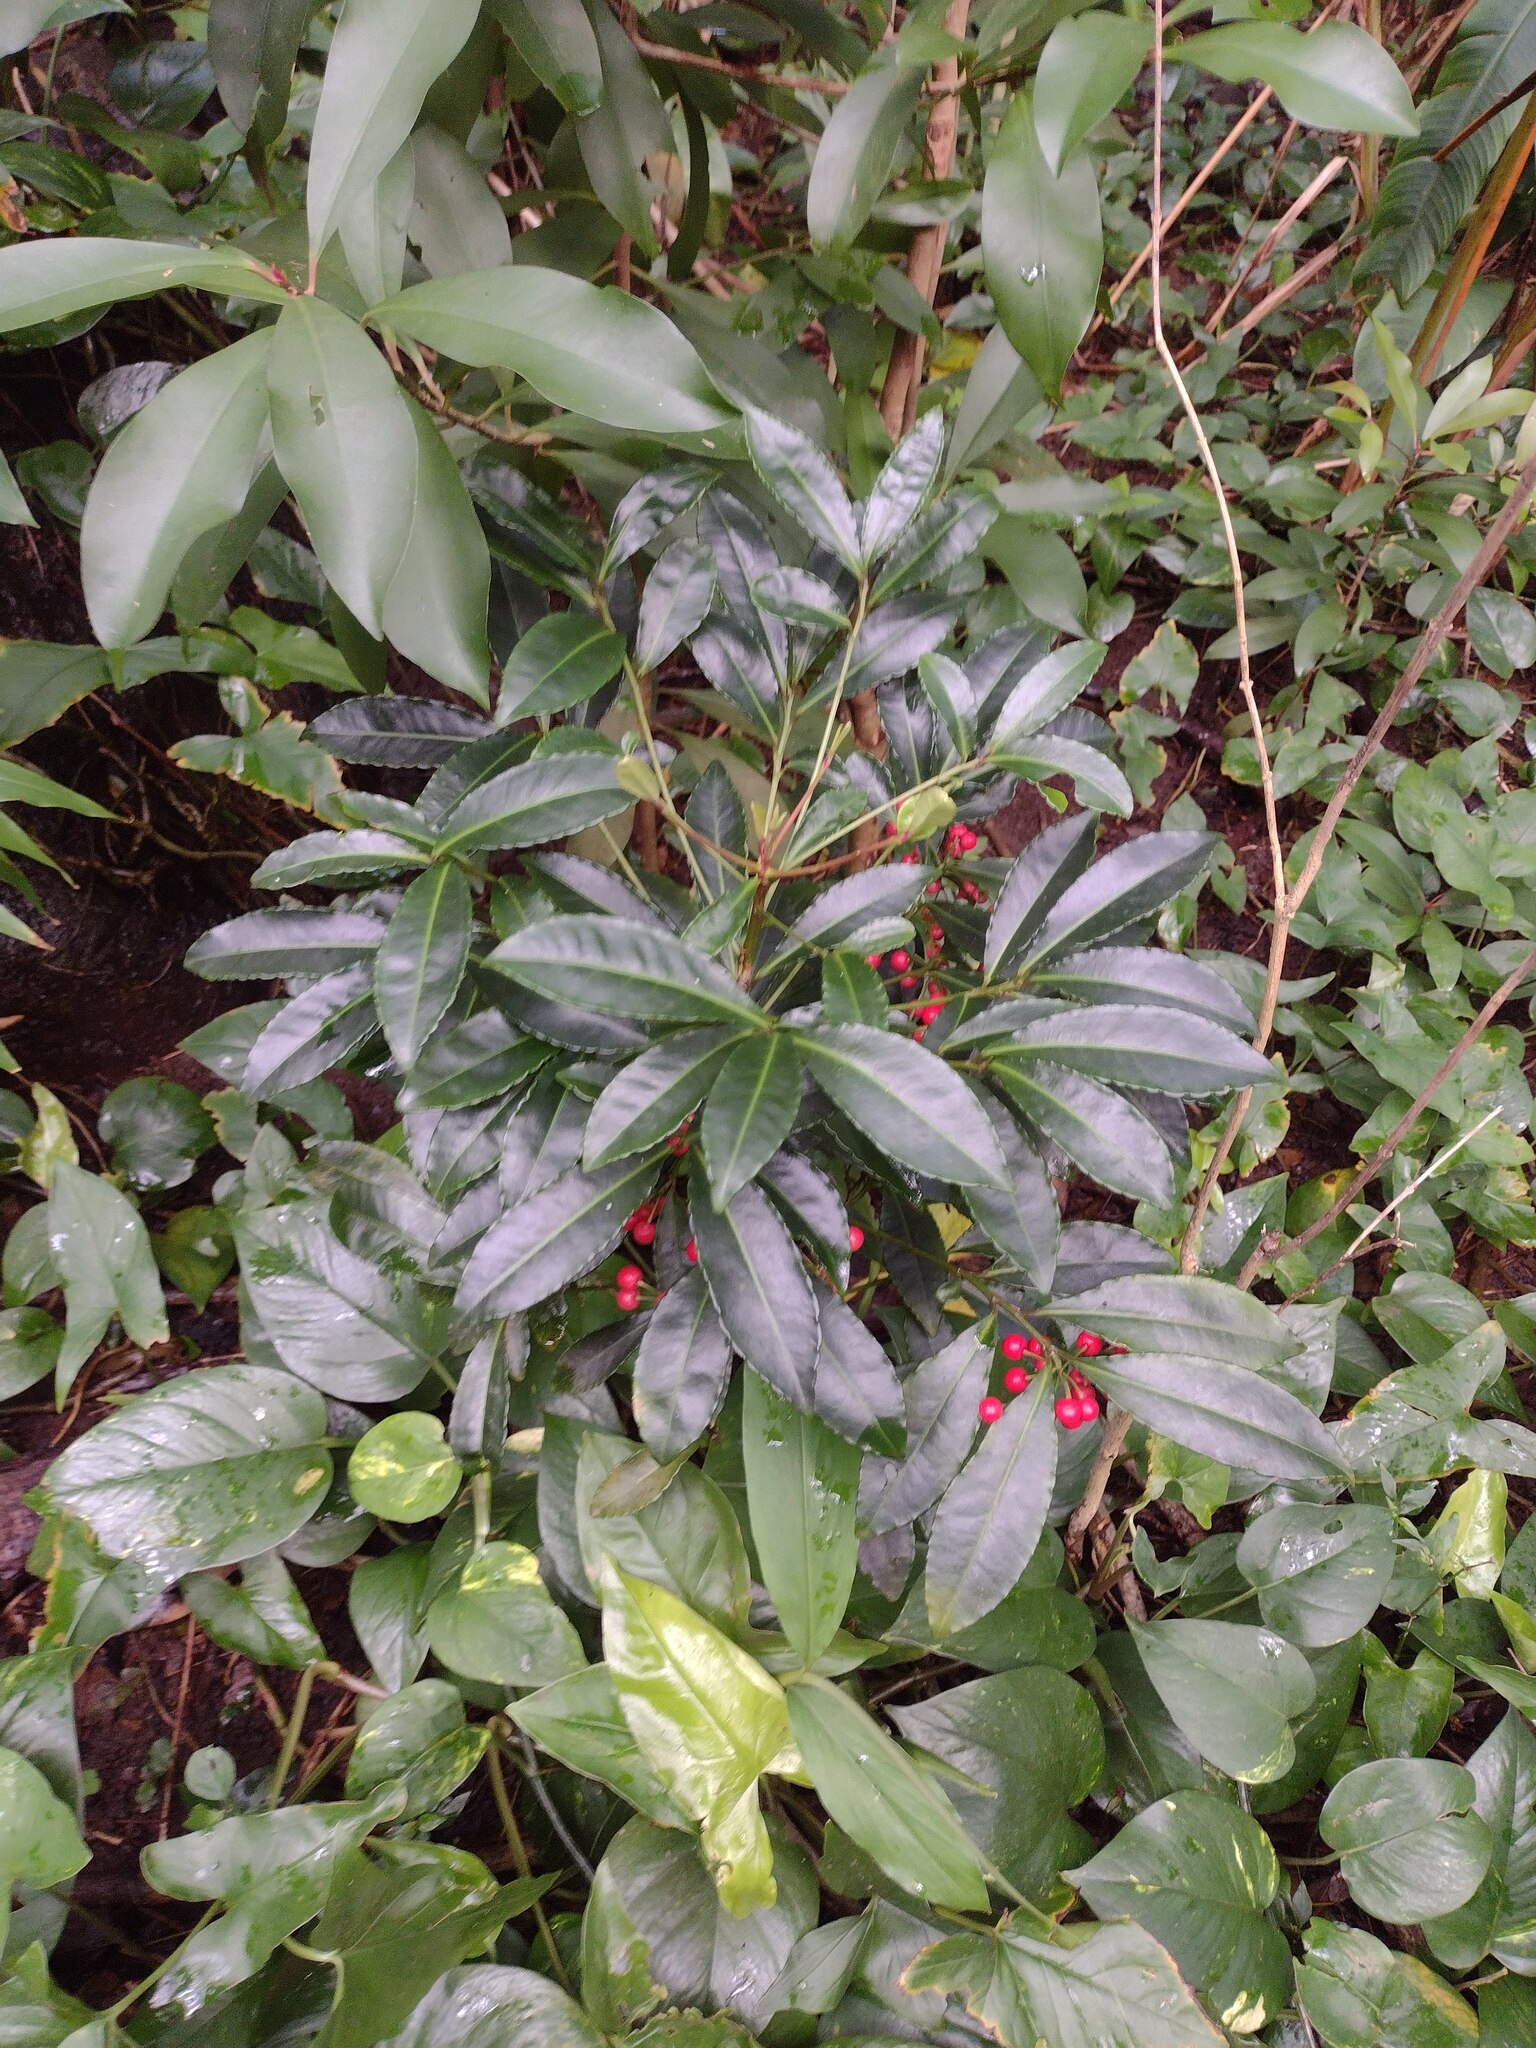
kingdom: Plantae
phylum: Tracheophyta
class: Magnoliopsida
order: Ericales
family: Primulaceae
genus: Ardisia
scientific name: Ardisia crenata
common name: Hen's eyes
